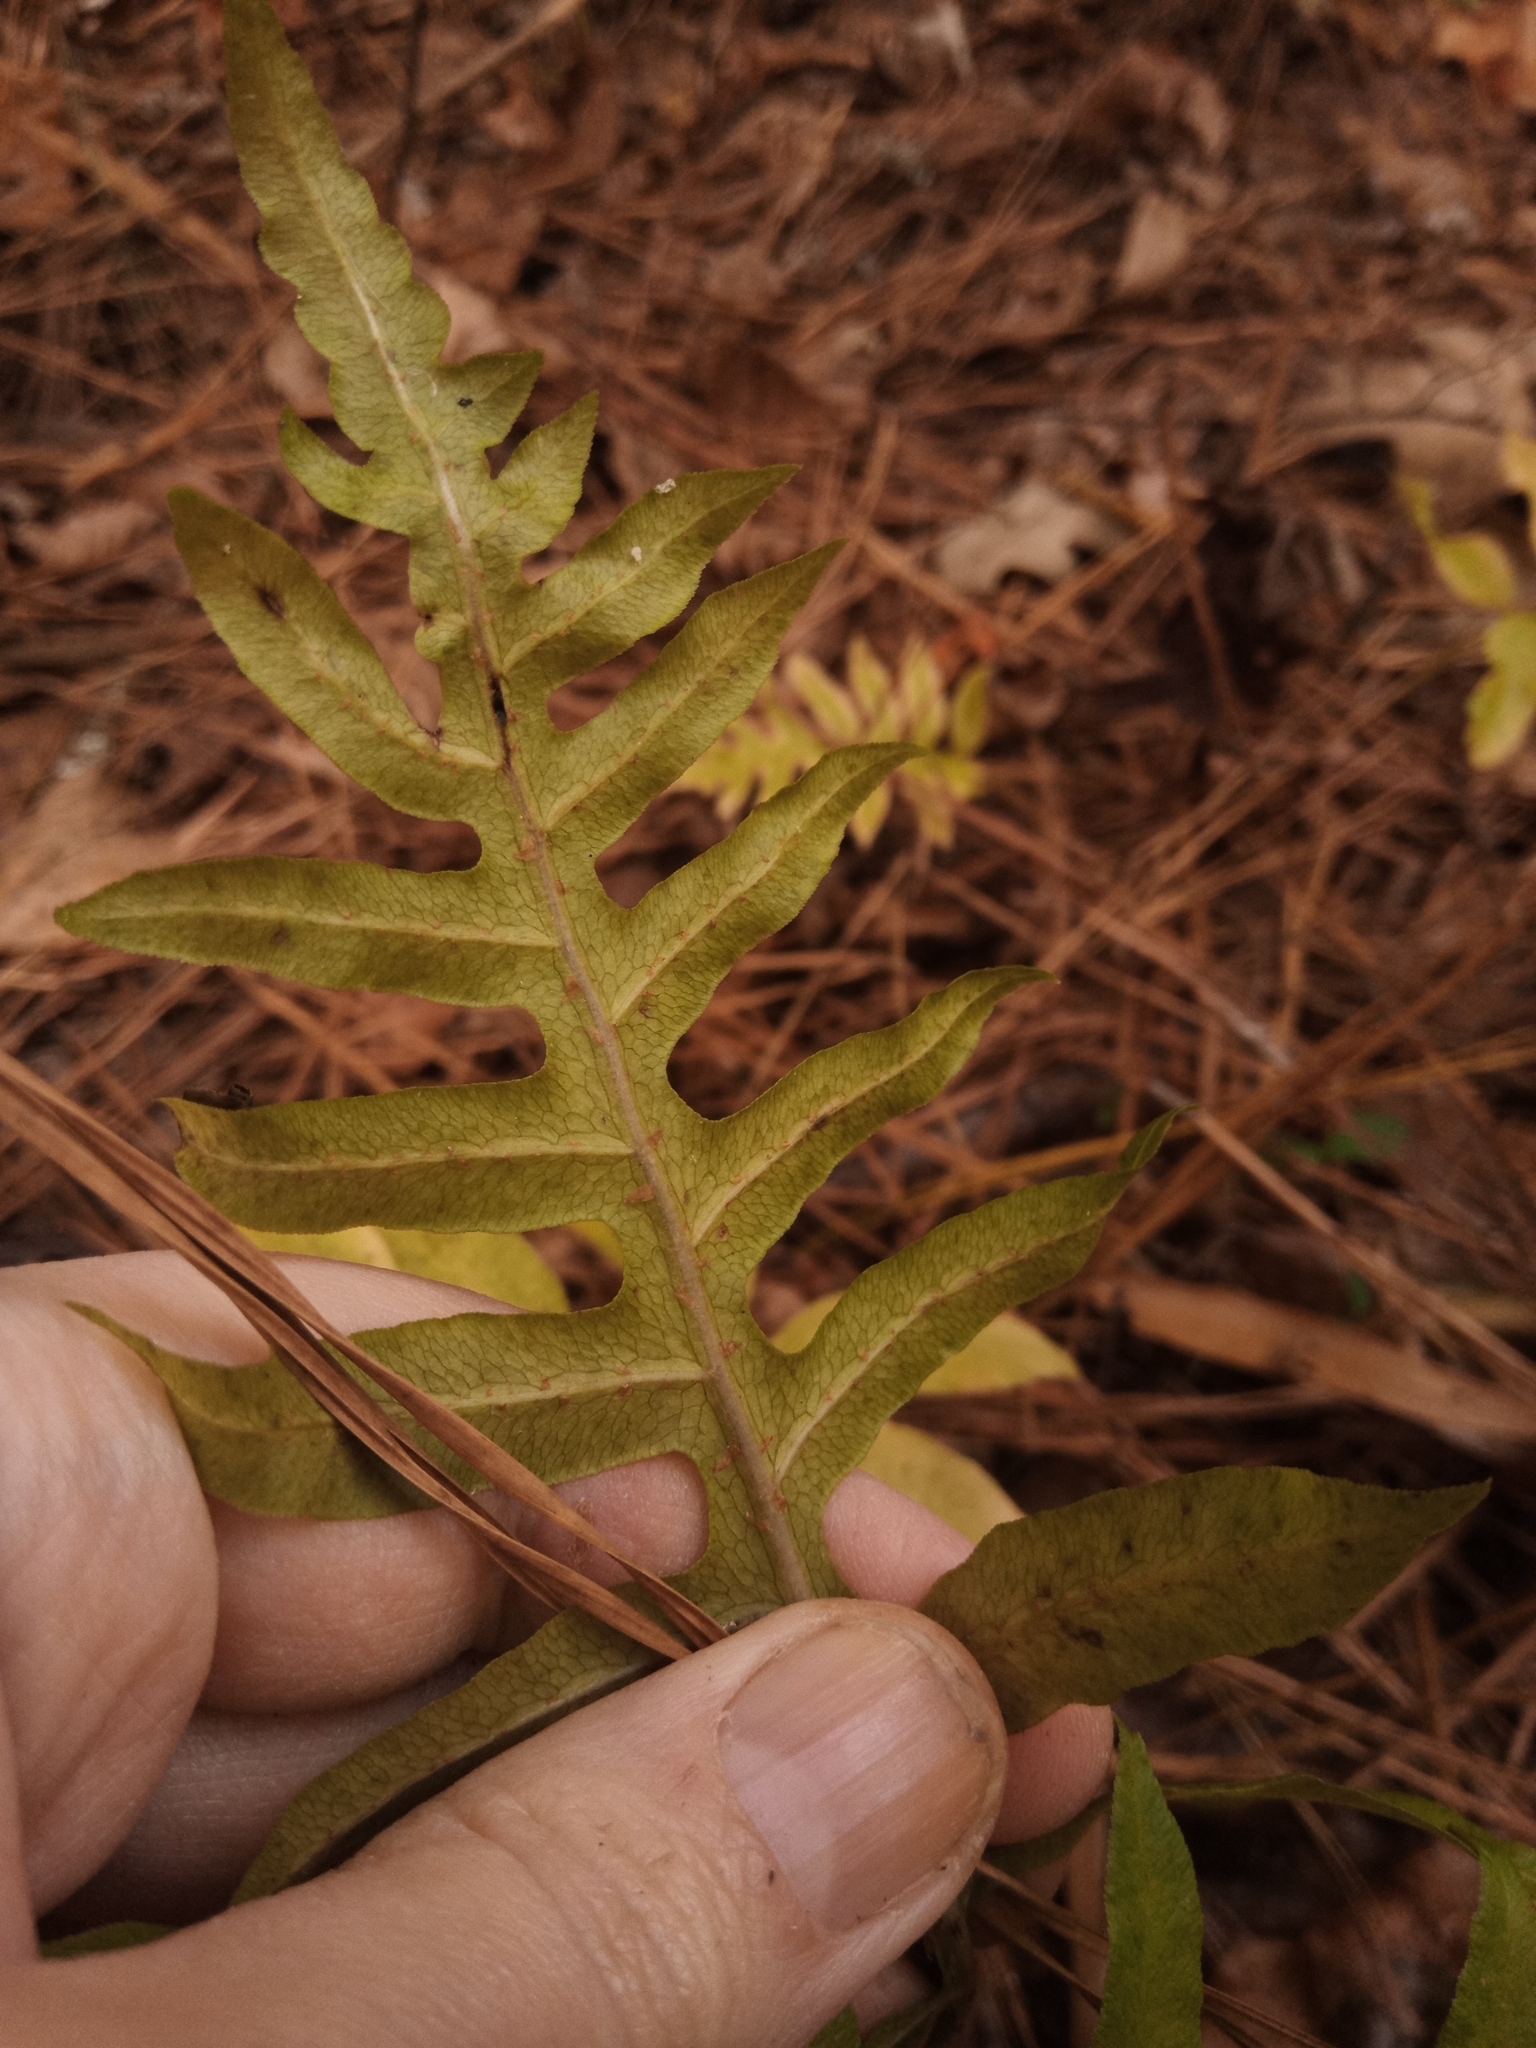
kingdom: Plantae
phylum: Tracheophyta
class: Polypodiopsida
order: Polypodiales
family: Blechnaceae
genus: Lorinseria
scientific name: Lorinseria areolata
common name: Dwarf chain fern
